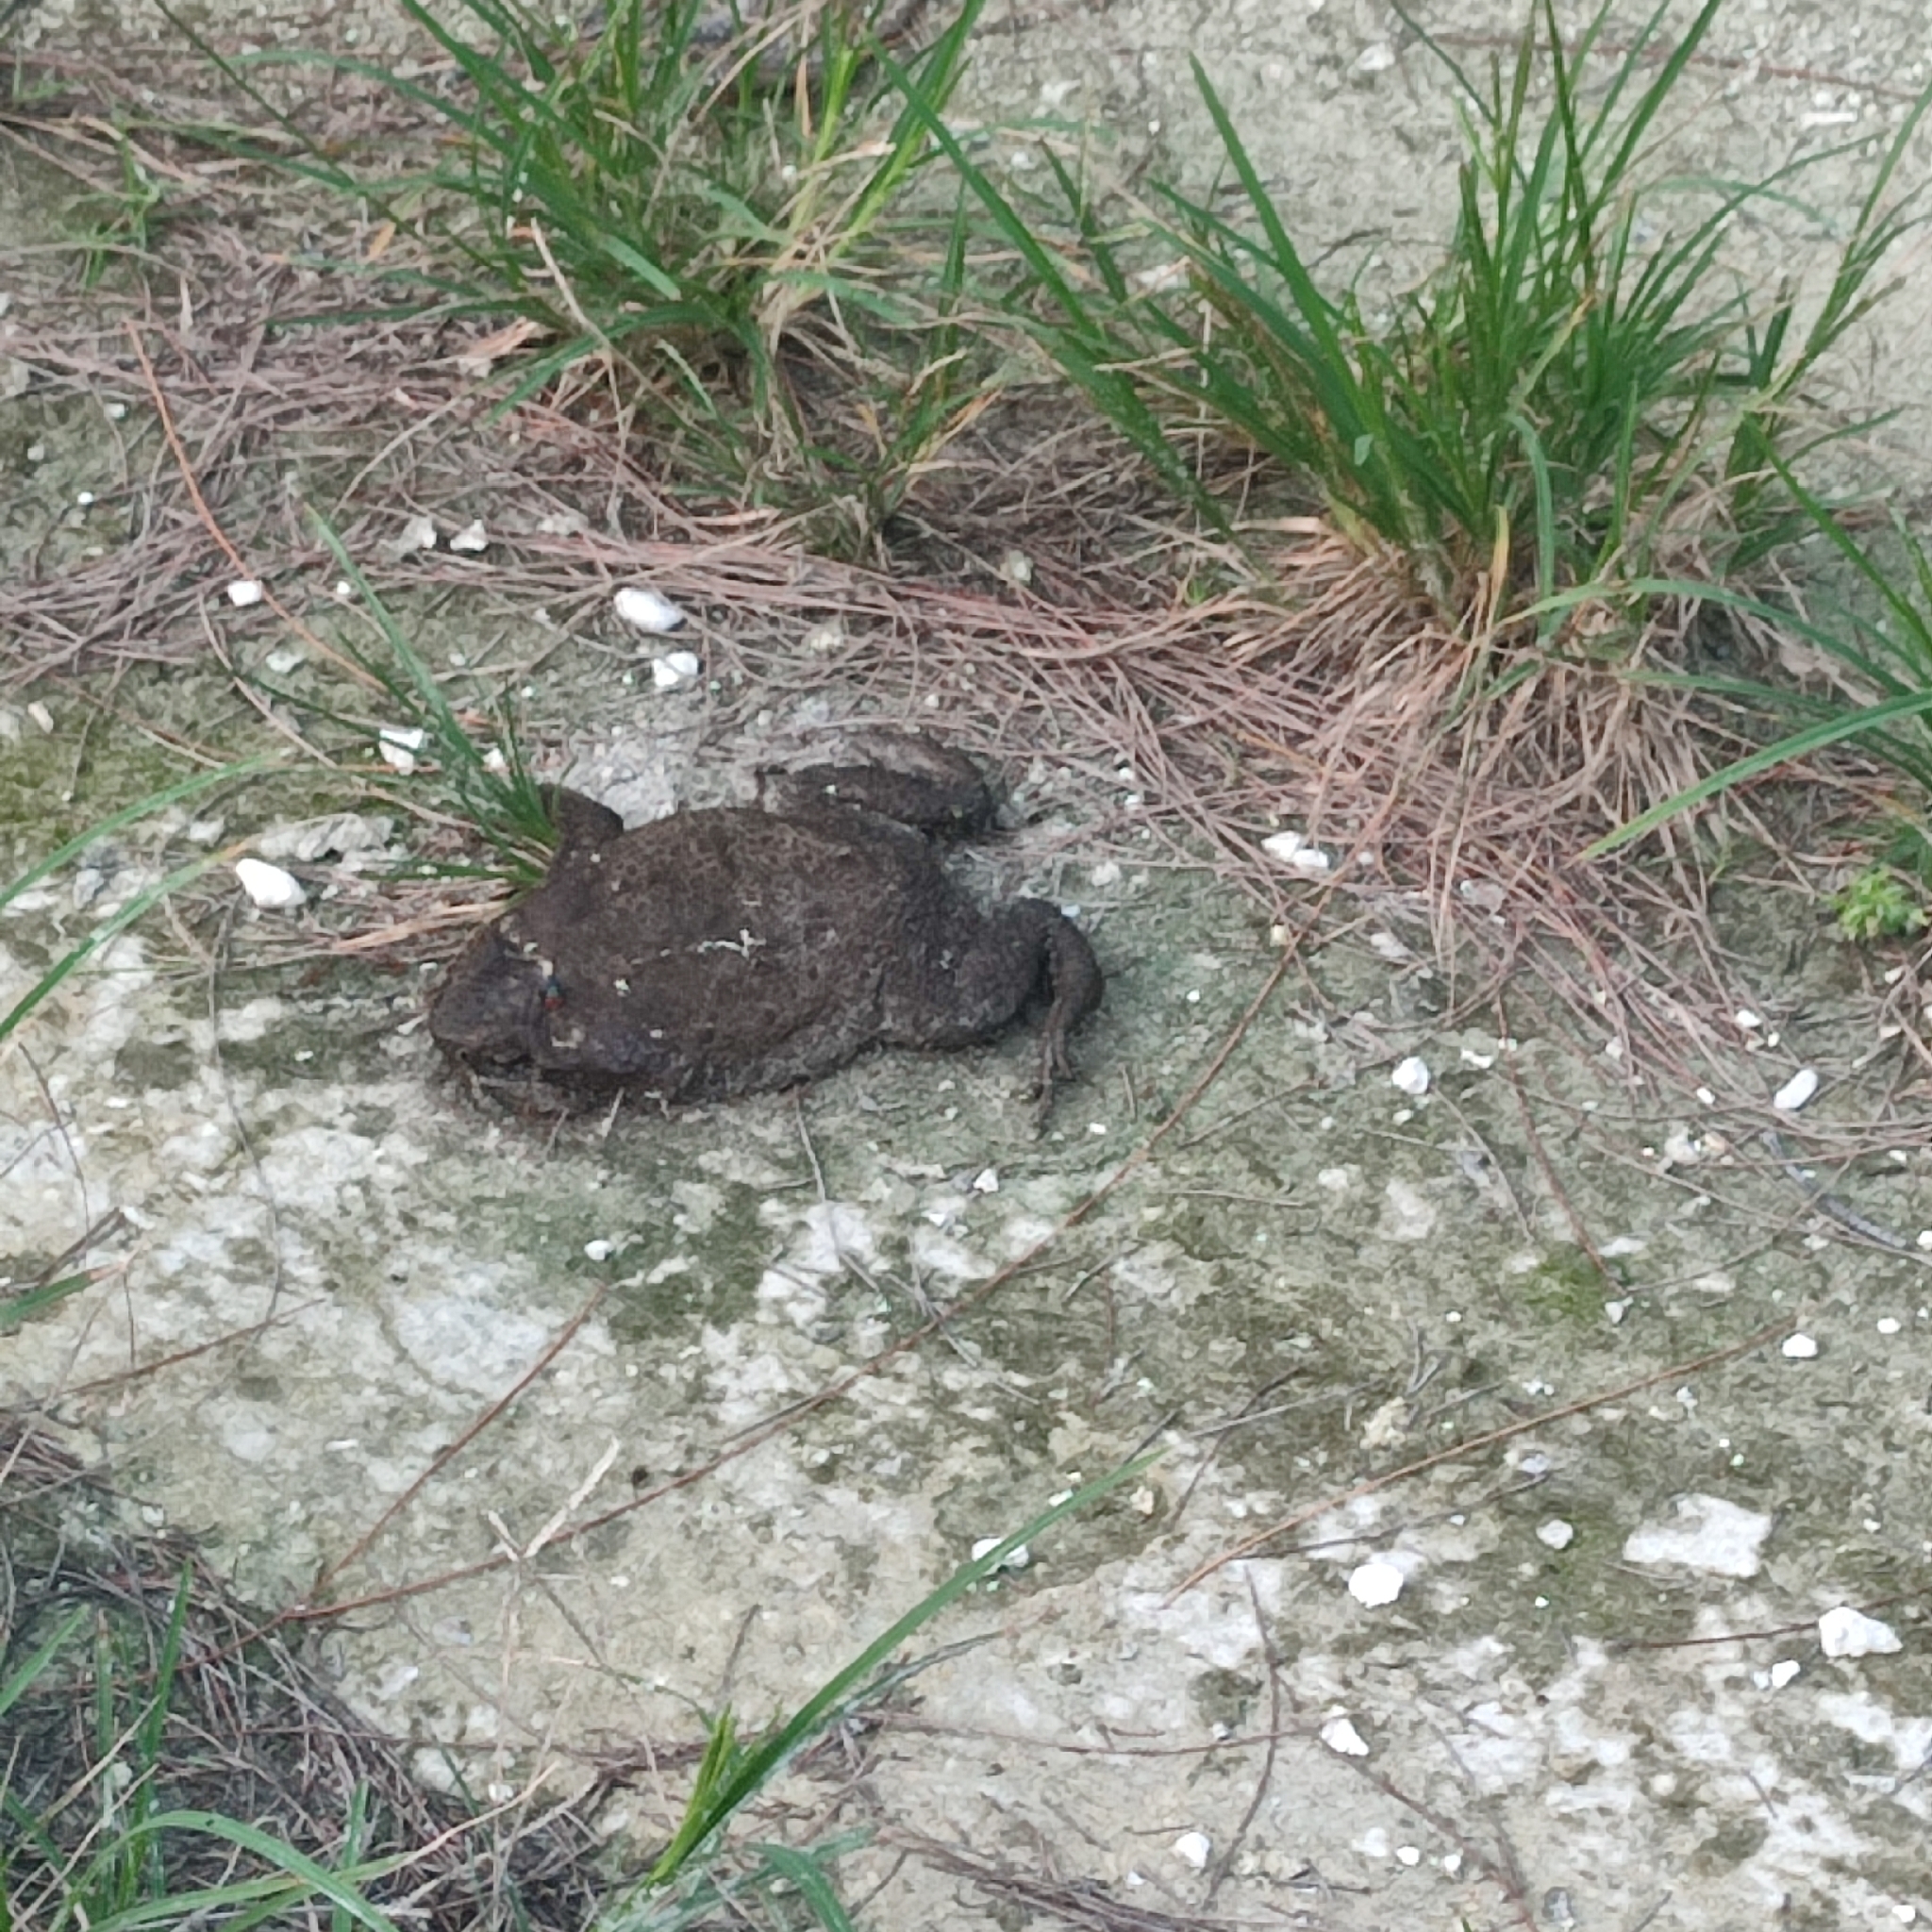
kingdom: Animalia
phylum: Chordata
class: Amphibia
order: Anura
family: Bufonidae
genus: Rhinella
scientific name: Rhinella marina
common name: Cane toad
